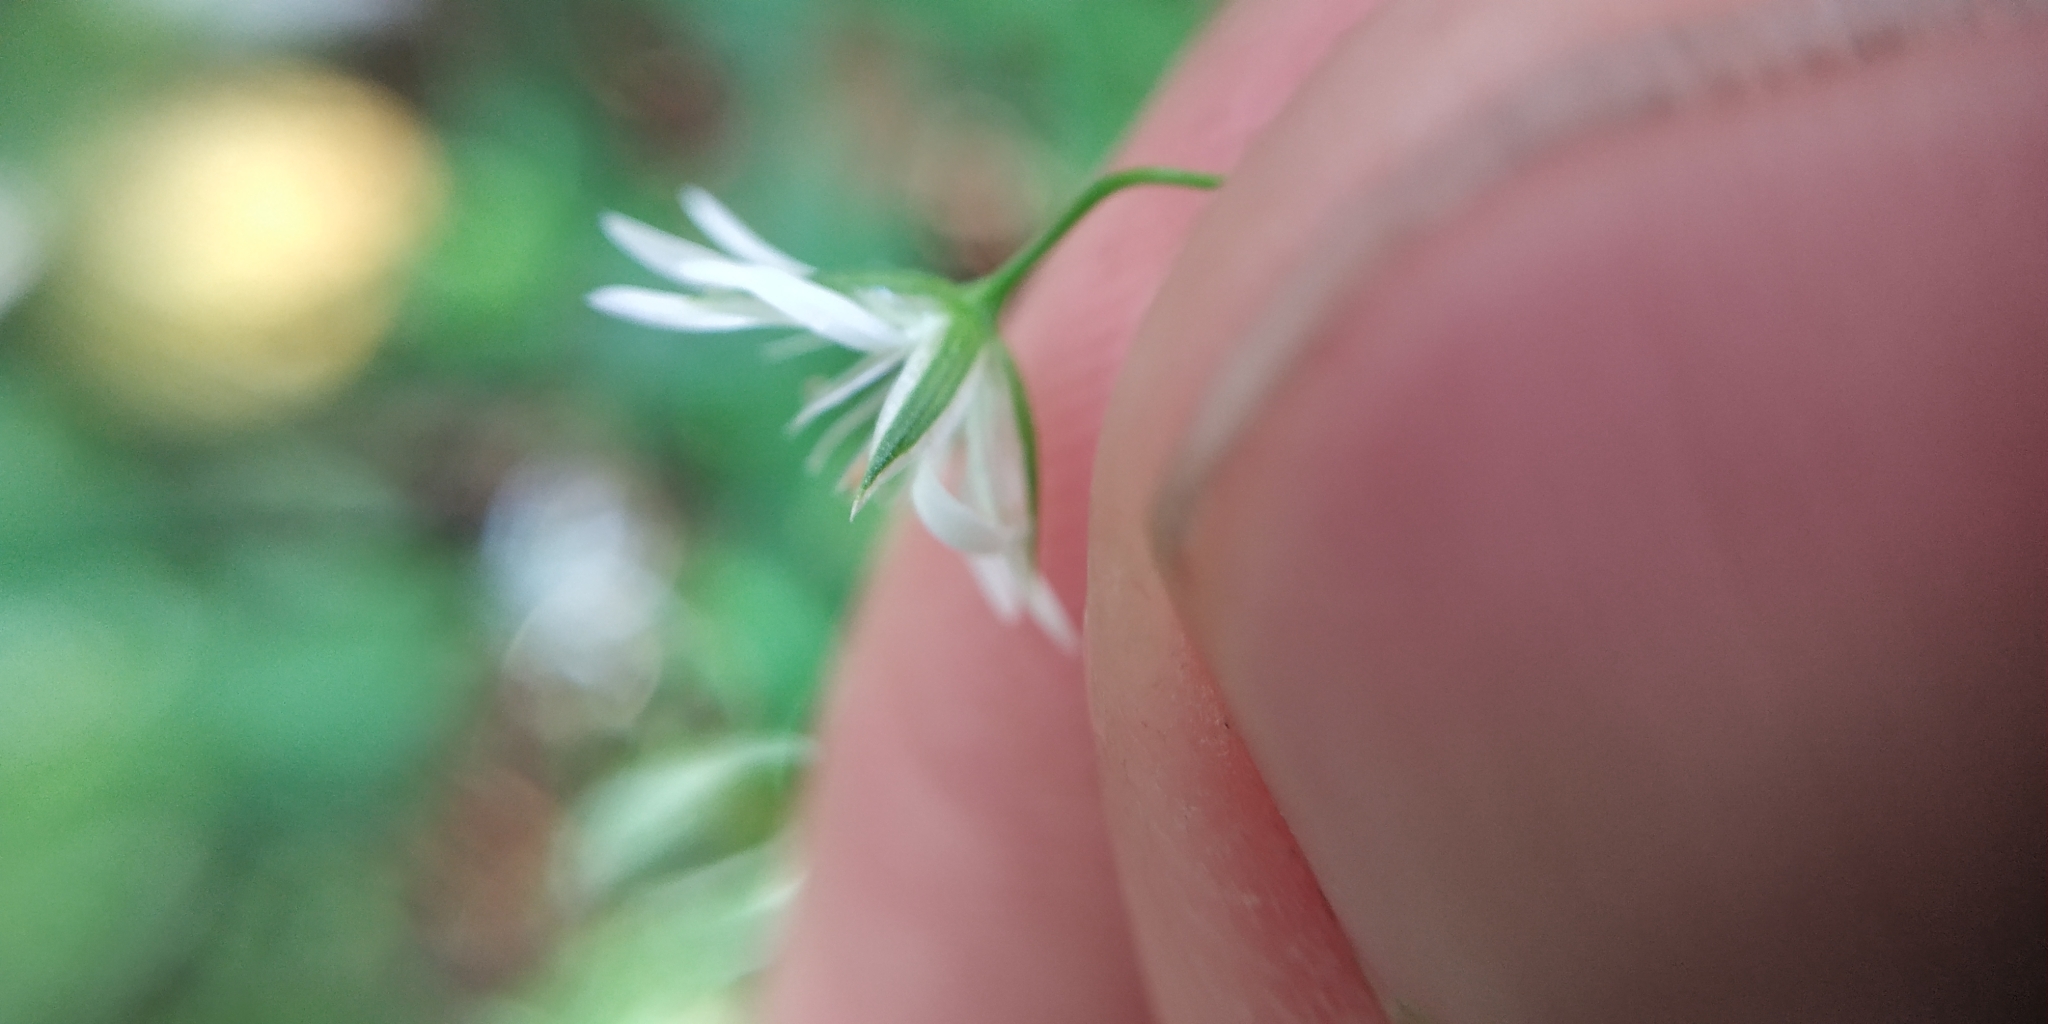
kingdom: Plantae
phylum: Tracheophyta
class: Magnoliopsida
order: Caryophyllales
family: Caryophyllaceae
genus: Stellaria
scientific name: Stellaria graminea
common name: Grass-like starwort
